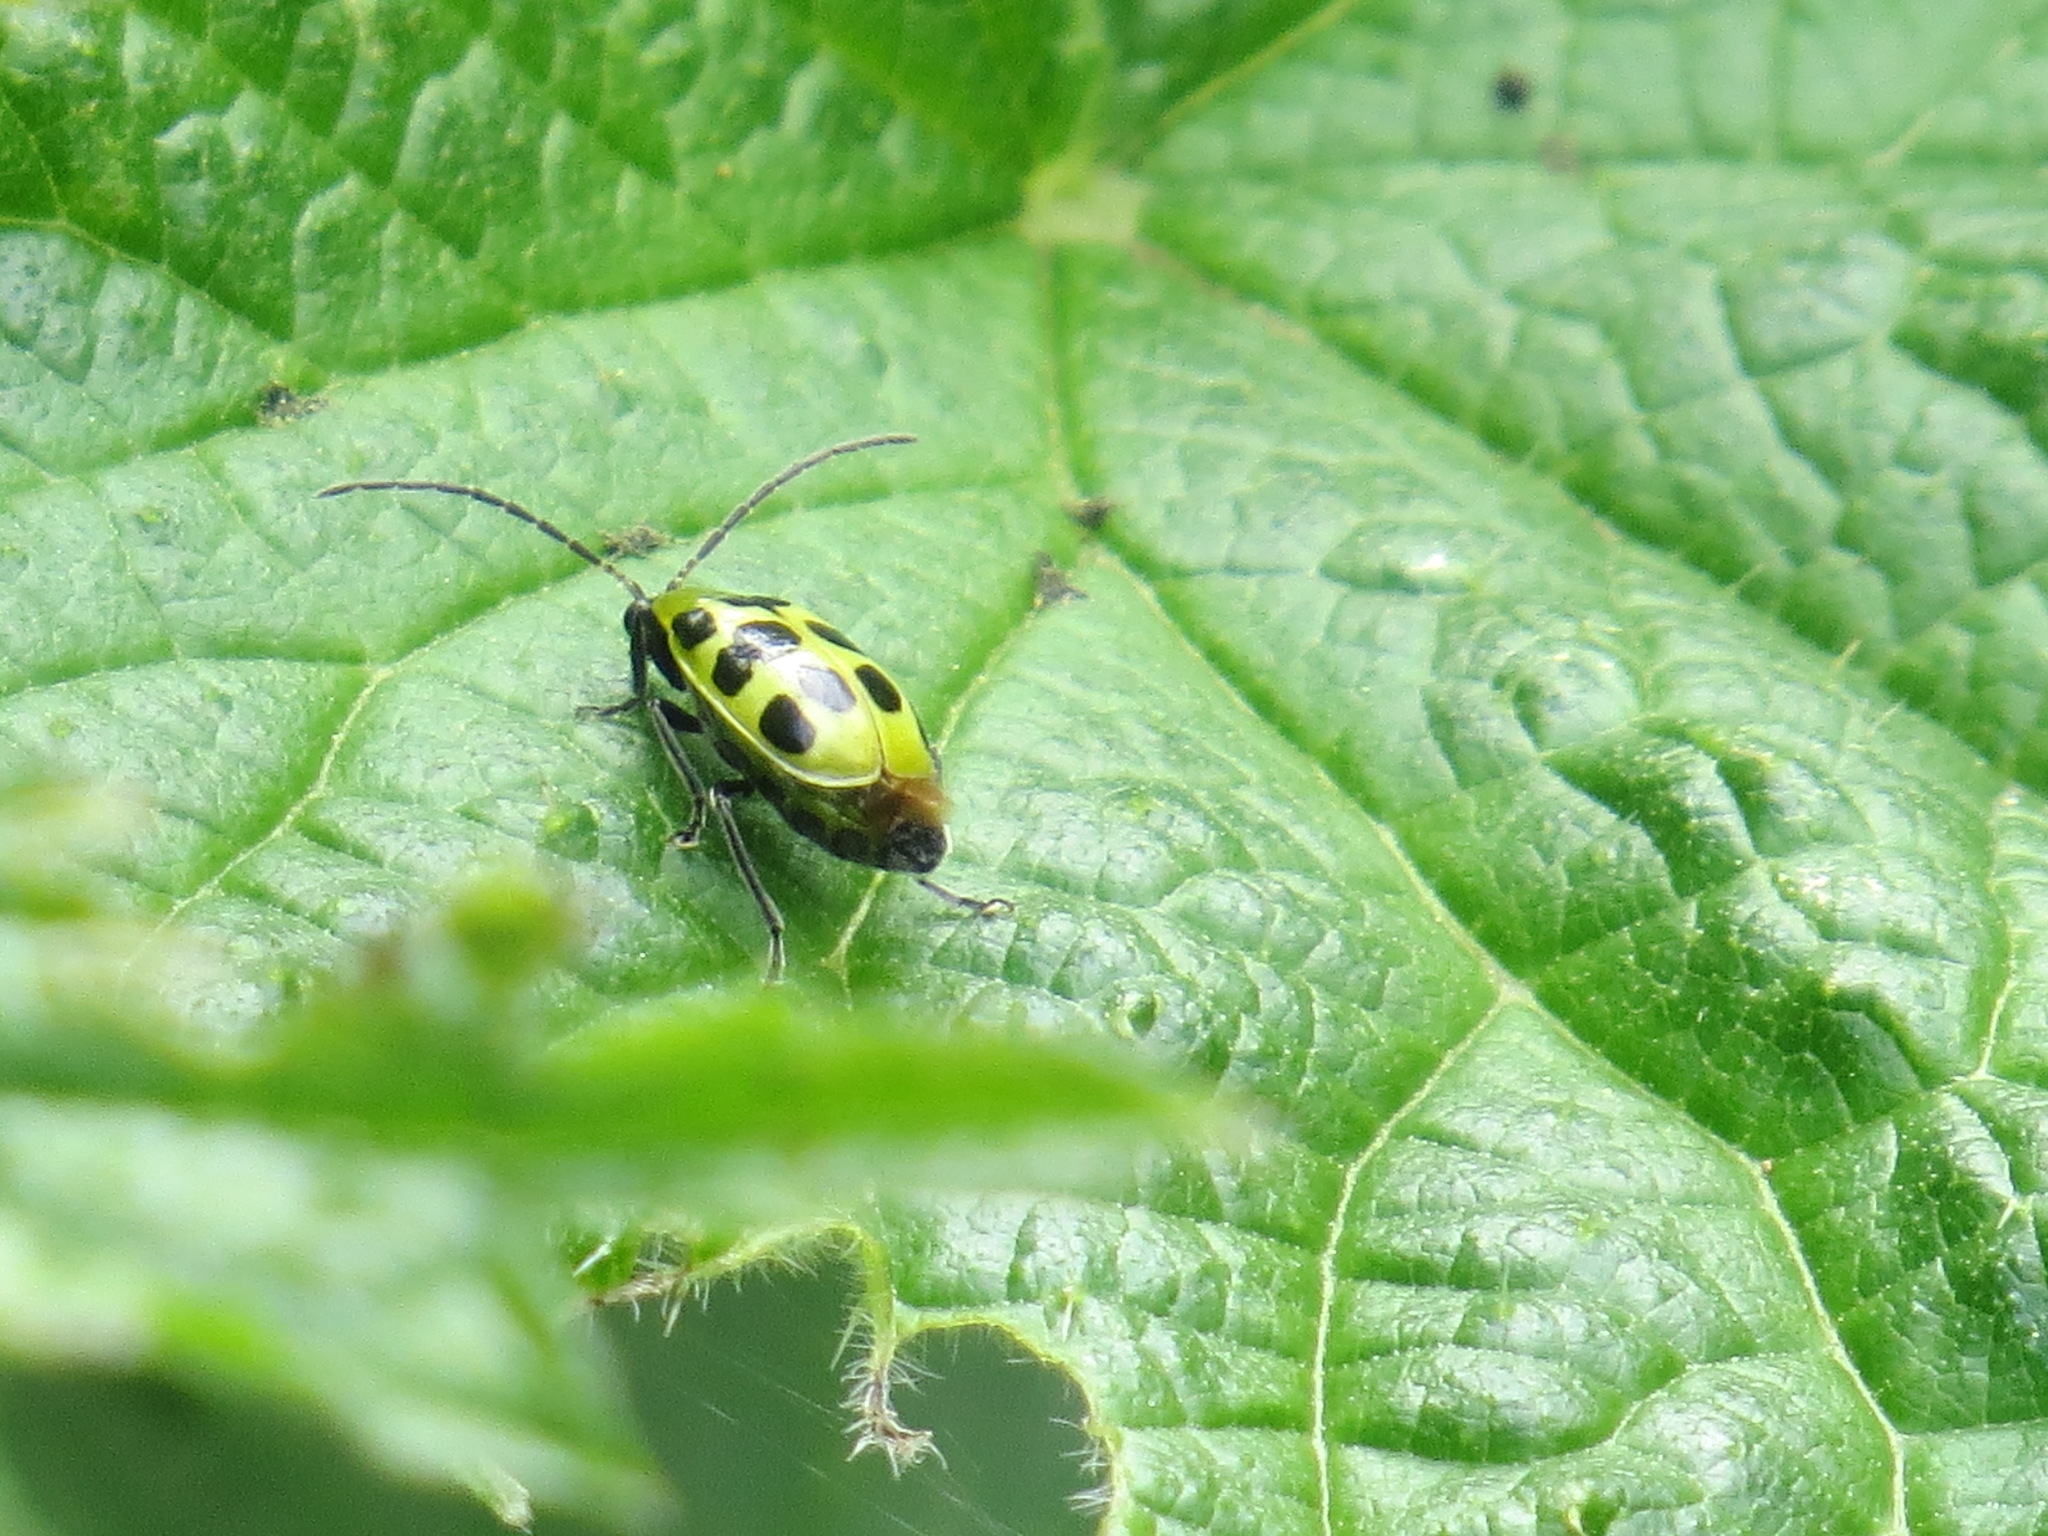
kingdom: Animalia
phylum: Arthropoda
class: Insecta
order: Coleoptera
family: Chrysomelidae
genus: Diabrotica
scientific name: Diabrotica undecimpunctata
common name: Spotted cucumber beetle
